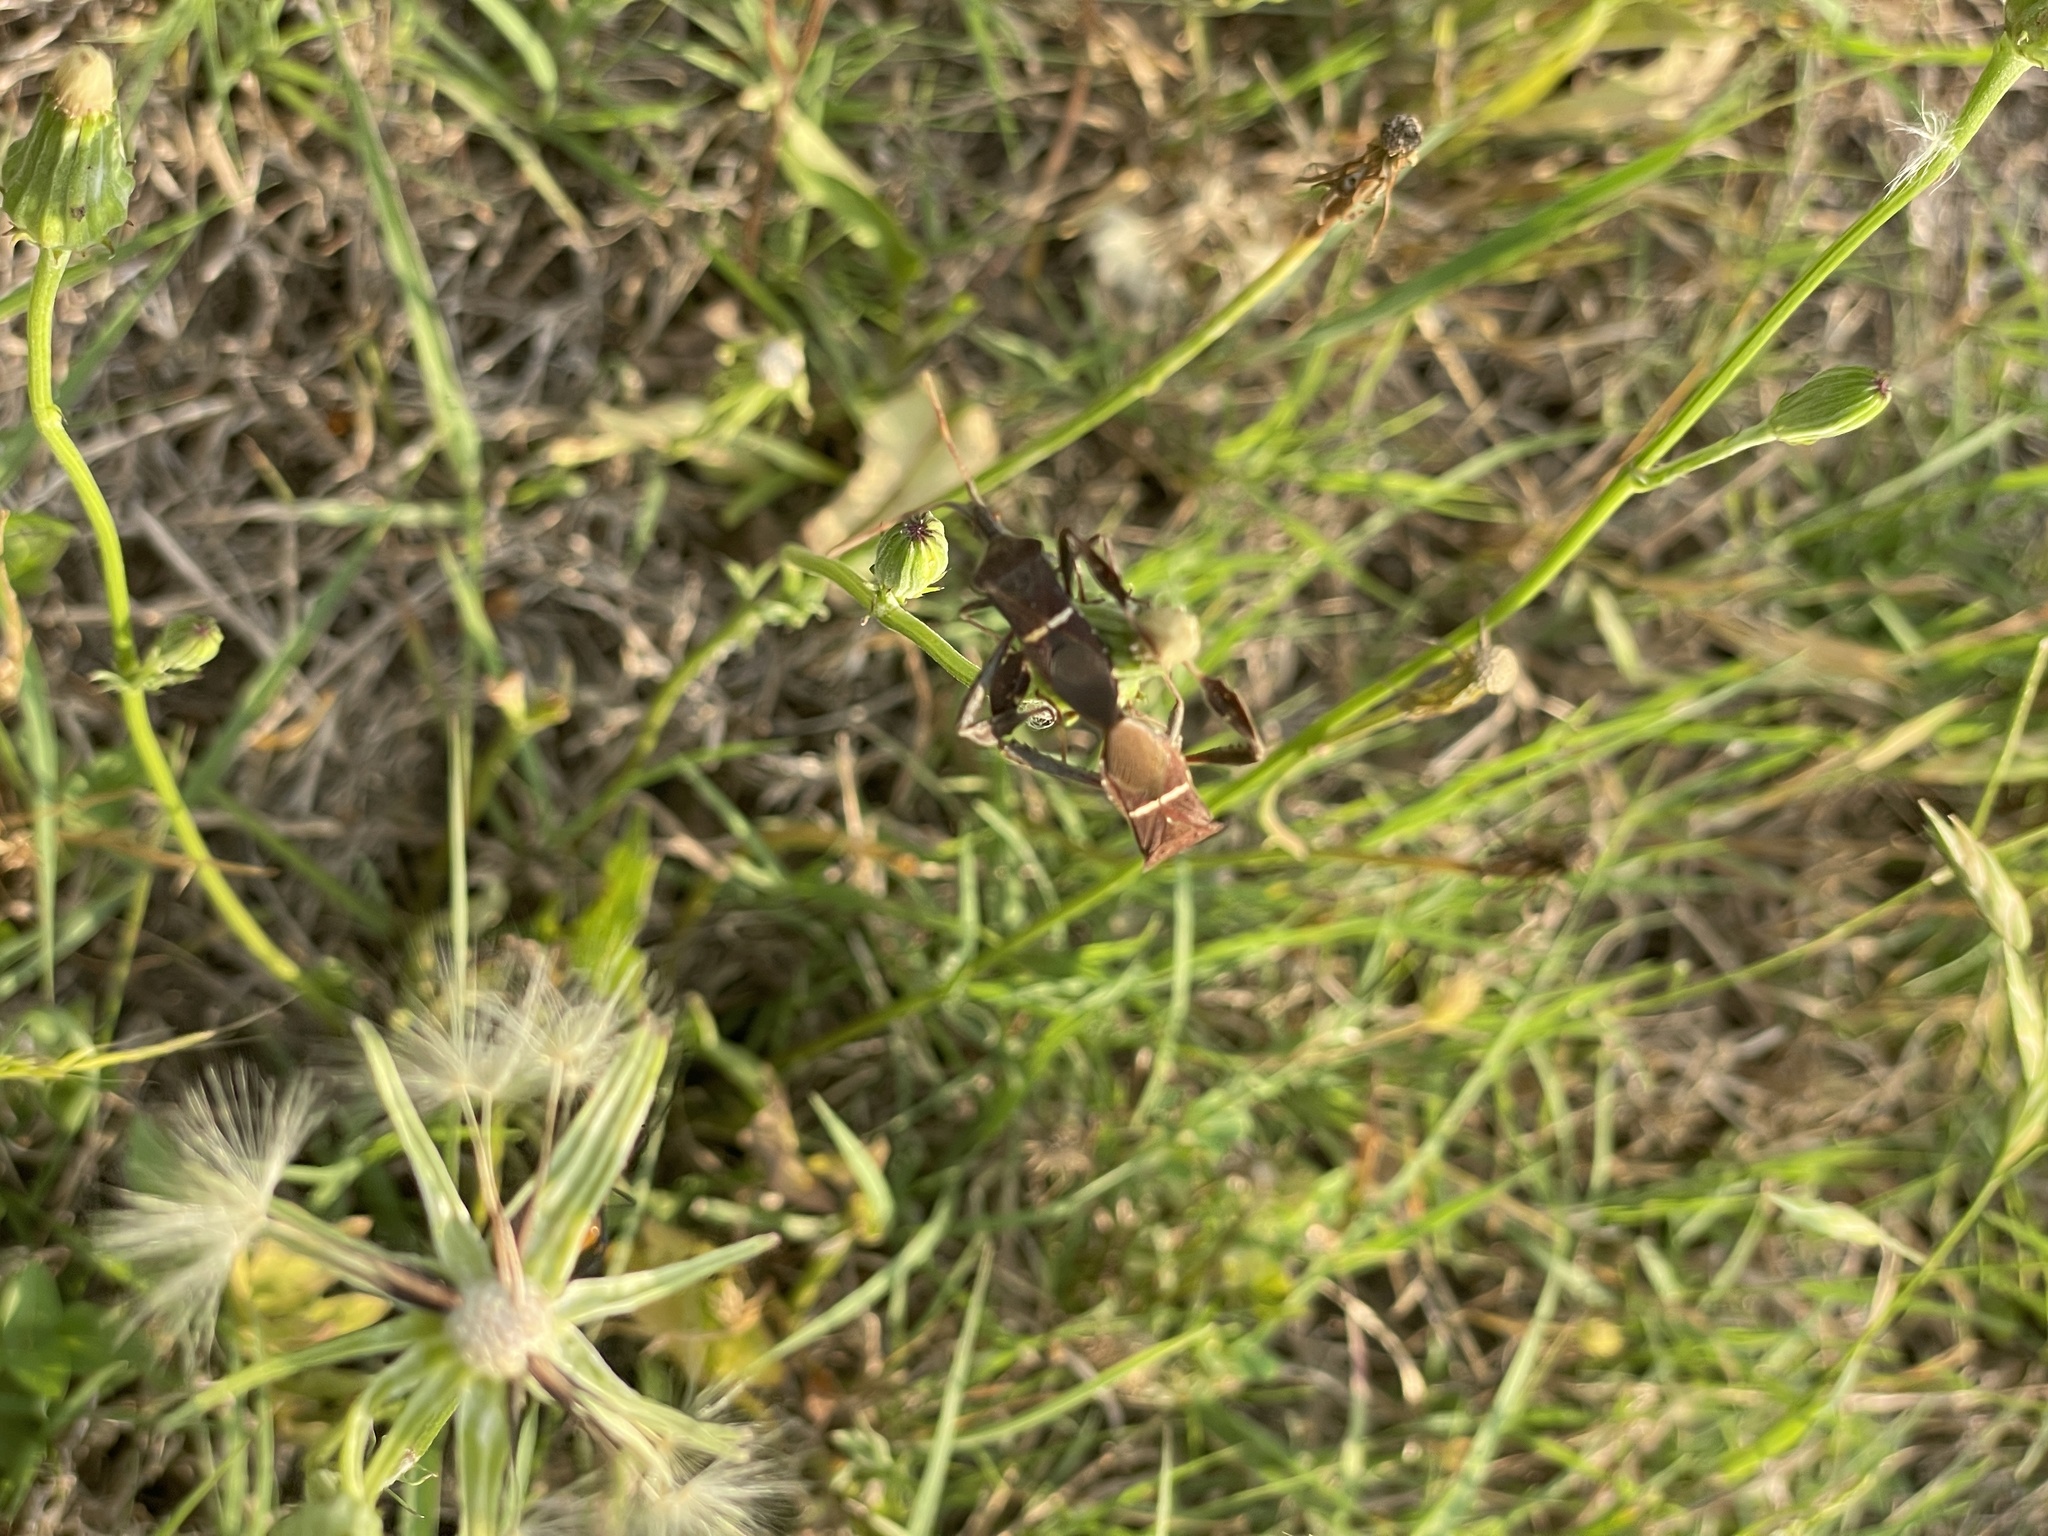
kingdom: Animalia
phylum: Arthropoda
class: Insecta
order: Hemiptera
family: Coreidae
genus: Leptoglossus
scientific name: Leptoglossus phyllopus
